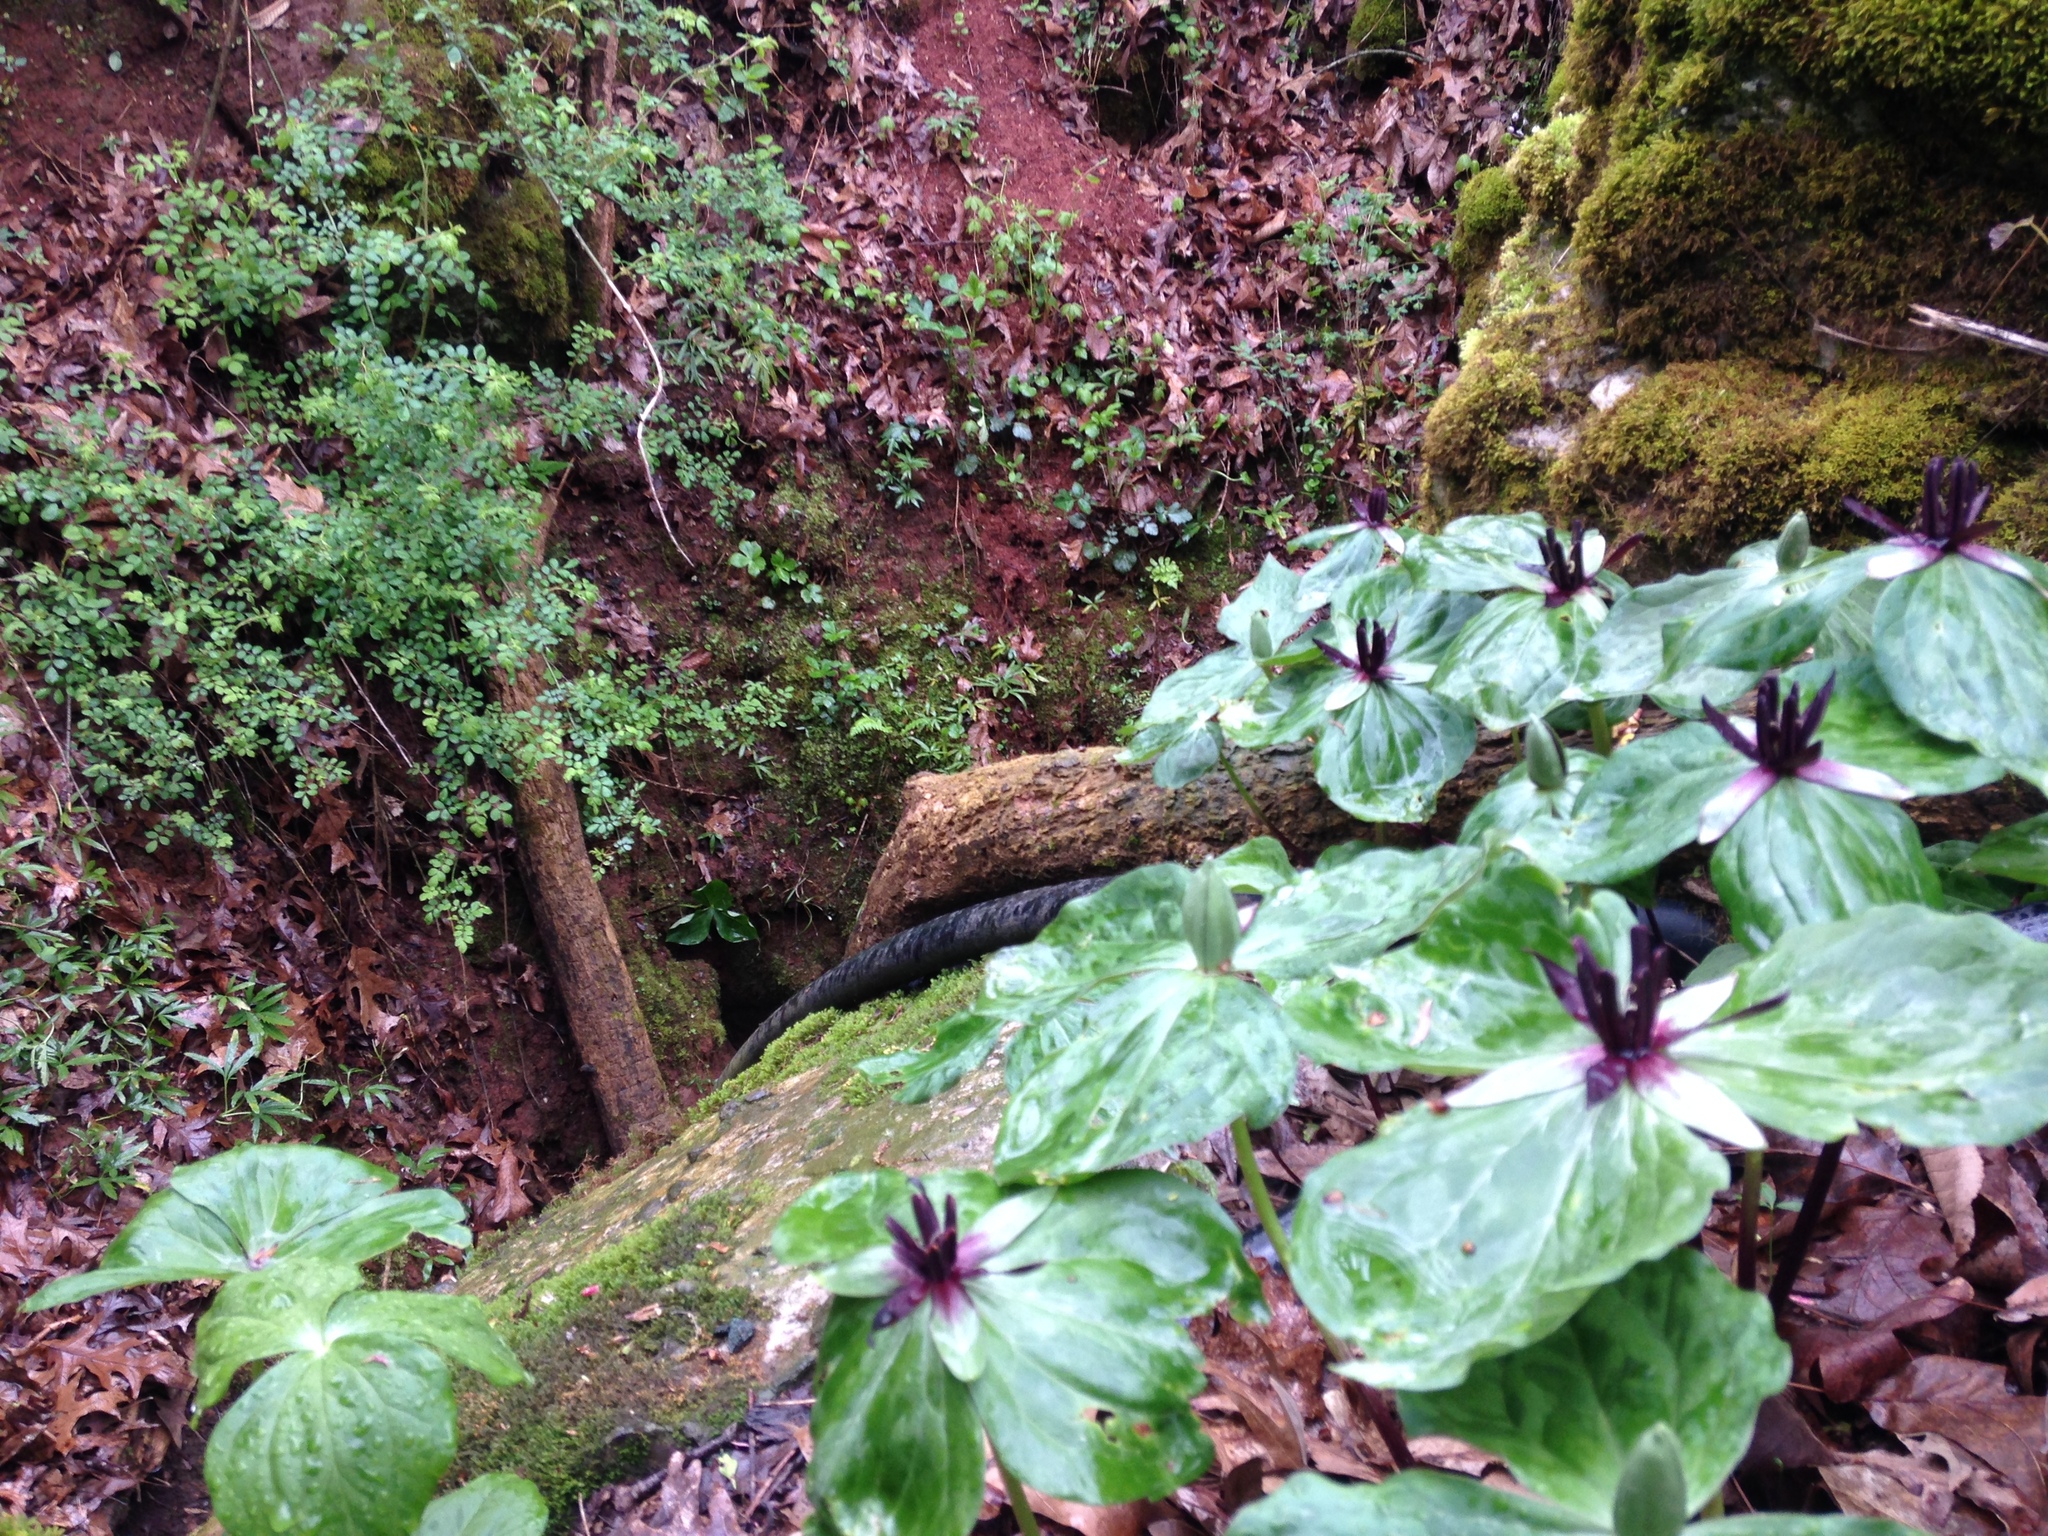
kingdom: Plantae
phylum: Tracheophyta
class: Liliopsida
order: Liliales
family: Melanthiaceae
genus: Trillium
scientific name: Trillium stamineum
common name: Blue ridge wakerobin
